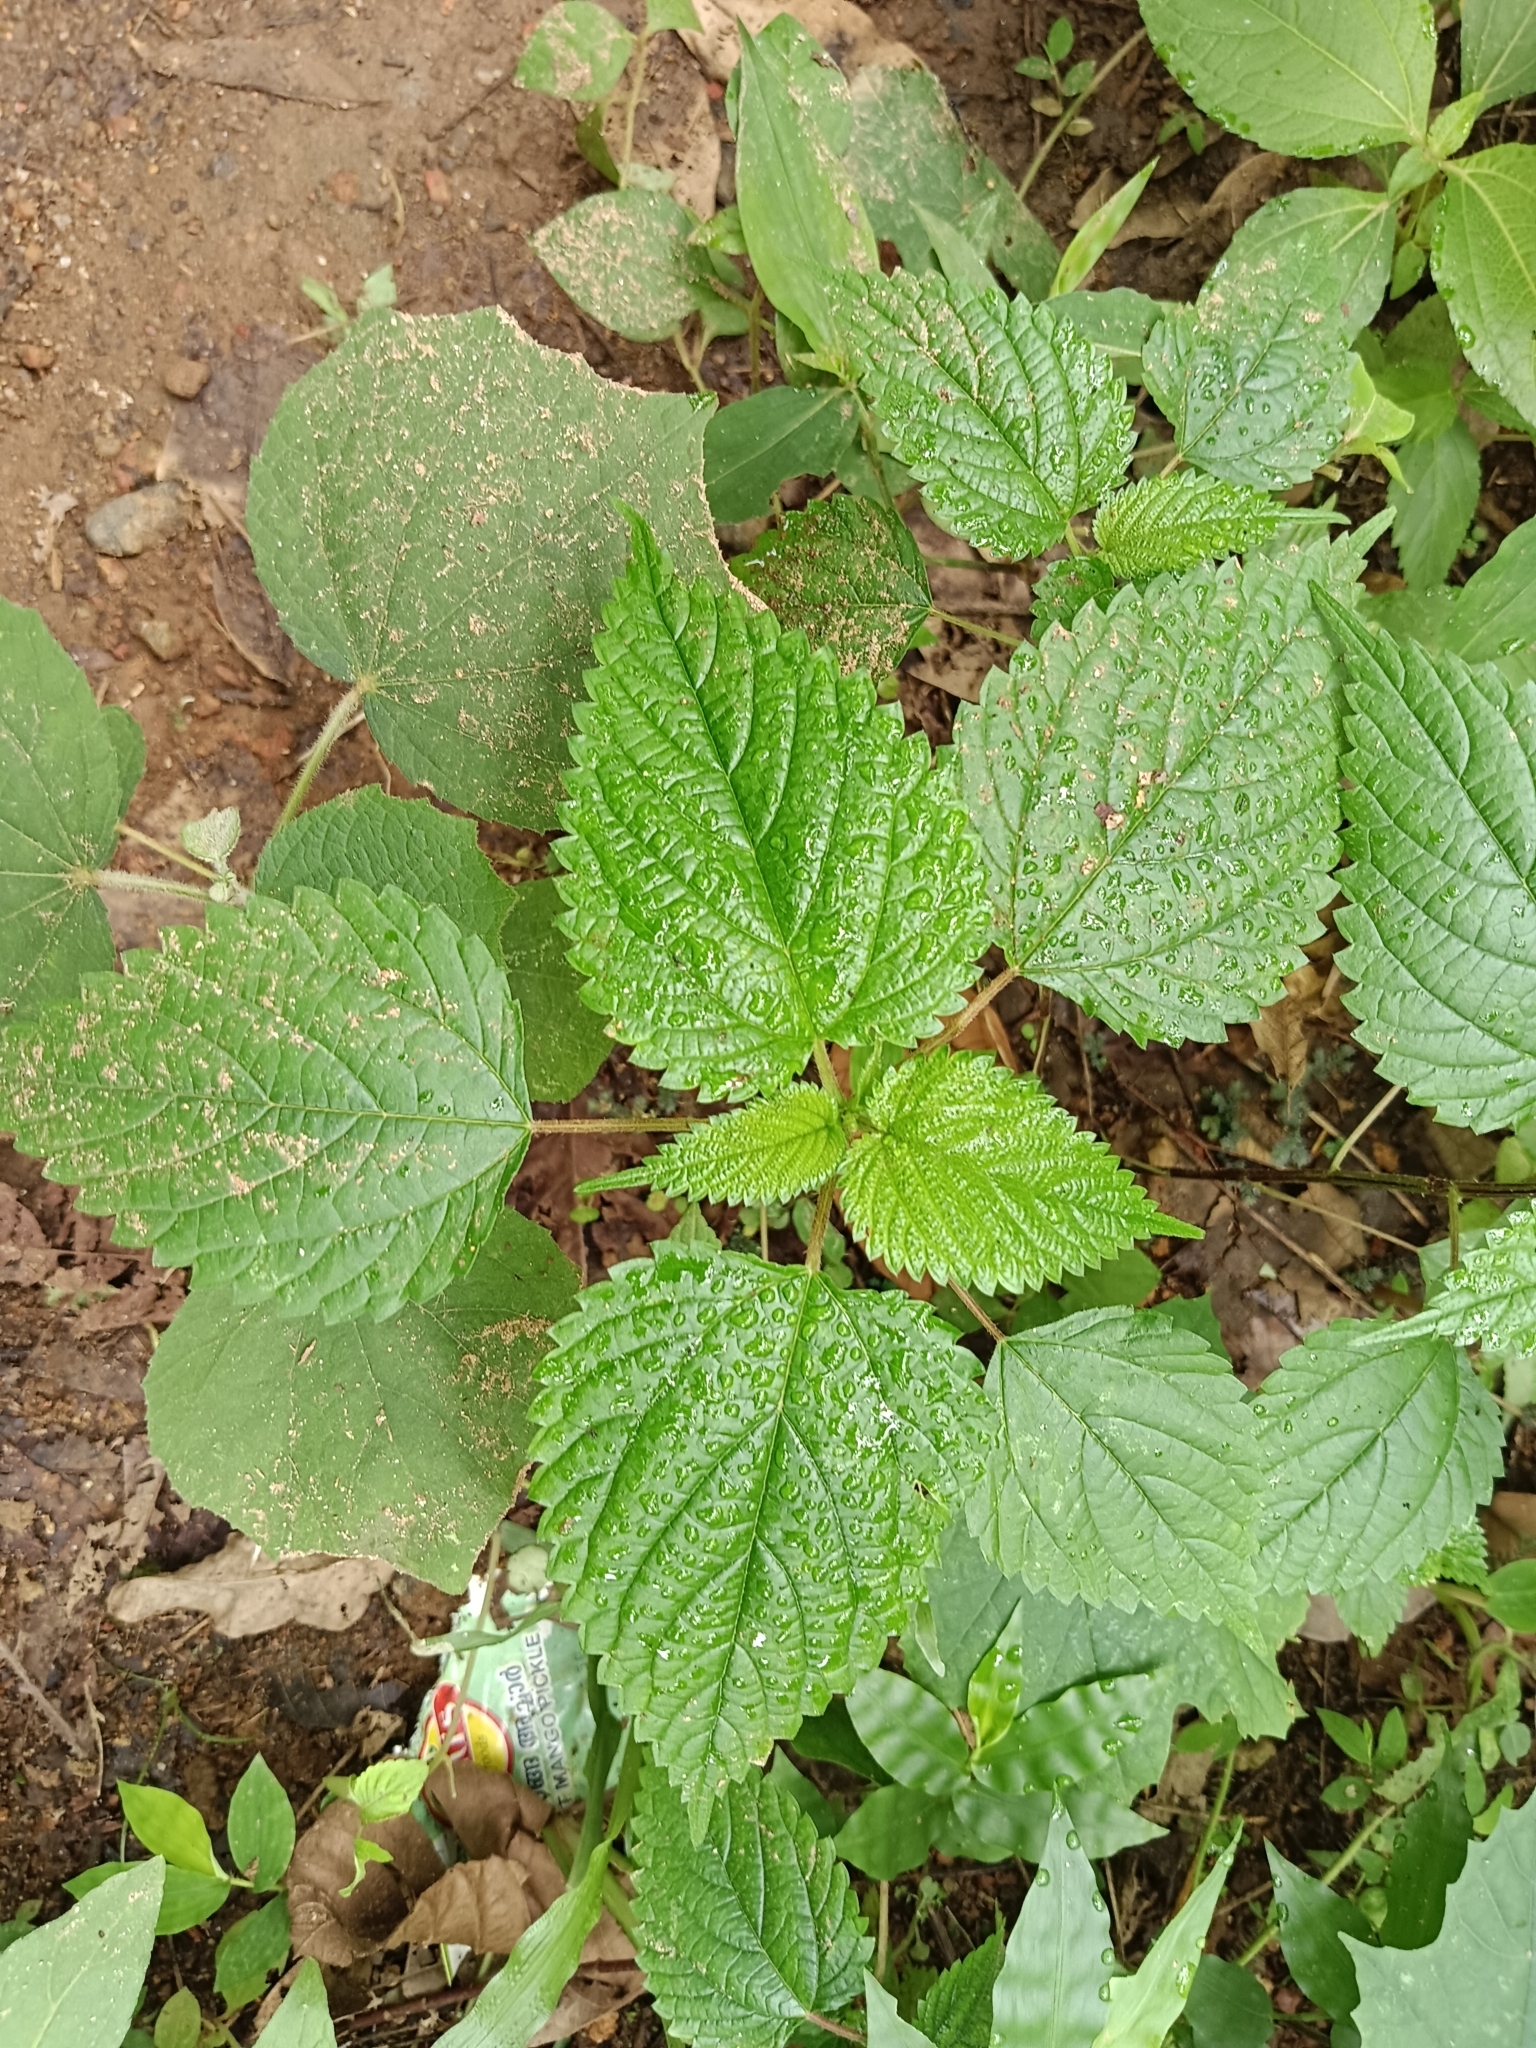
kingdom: Plantae
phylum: Tracheophyta
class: Magnoliopsida
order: Rosales
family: Urticaceae
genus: Laportea
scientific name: Laportea aestuans
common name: West indian woodnettle
